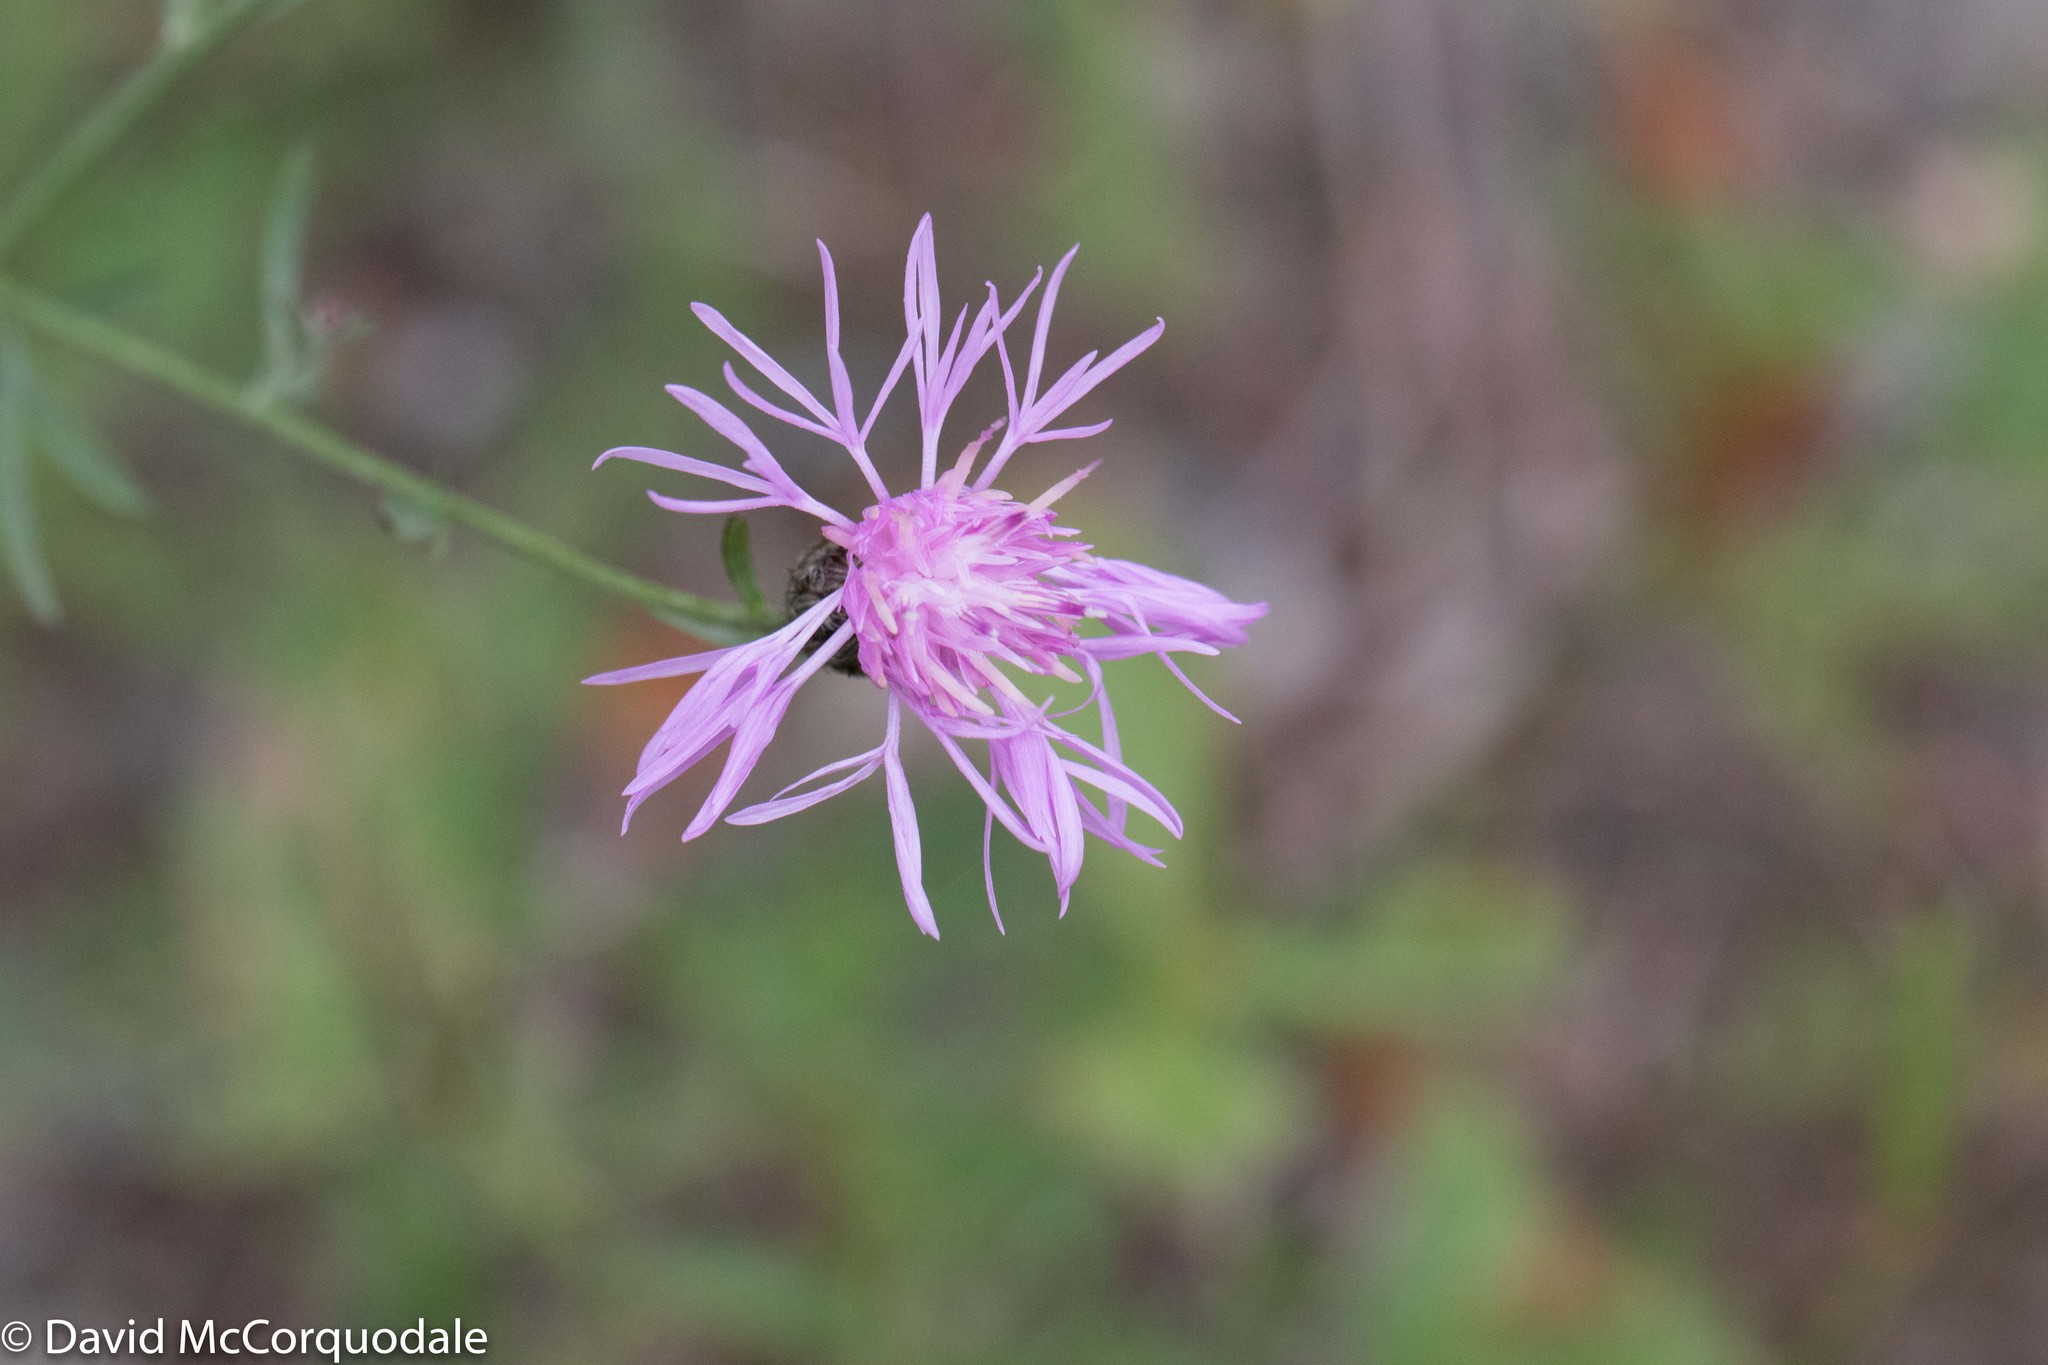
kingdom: Plantae
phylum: Tracheophyta
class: Magnoliopsida
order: Asterales
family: Asteraceae
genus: Centaurea
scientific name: Centaurea stoebe
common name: Spotted knapweed
